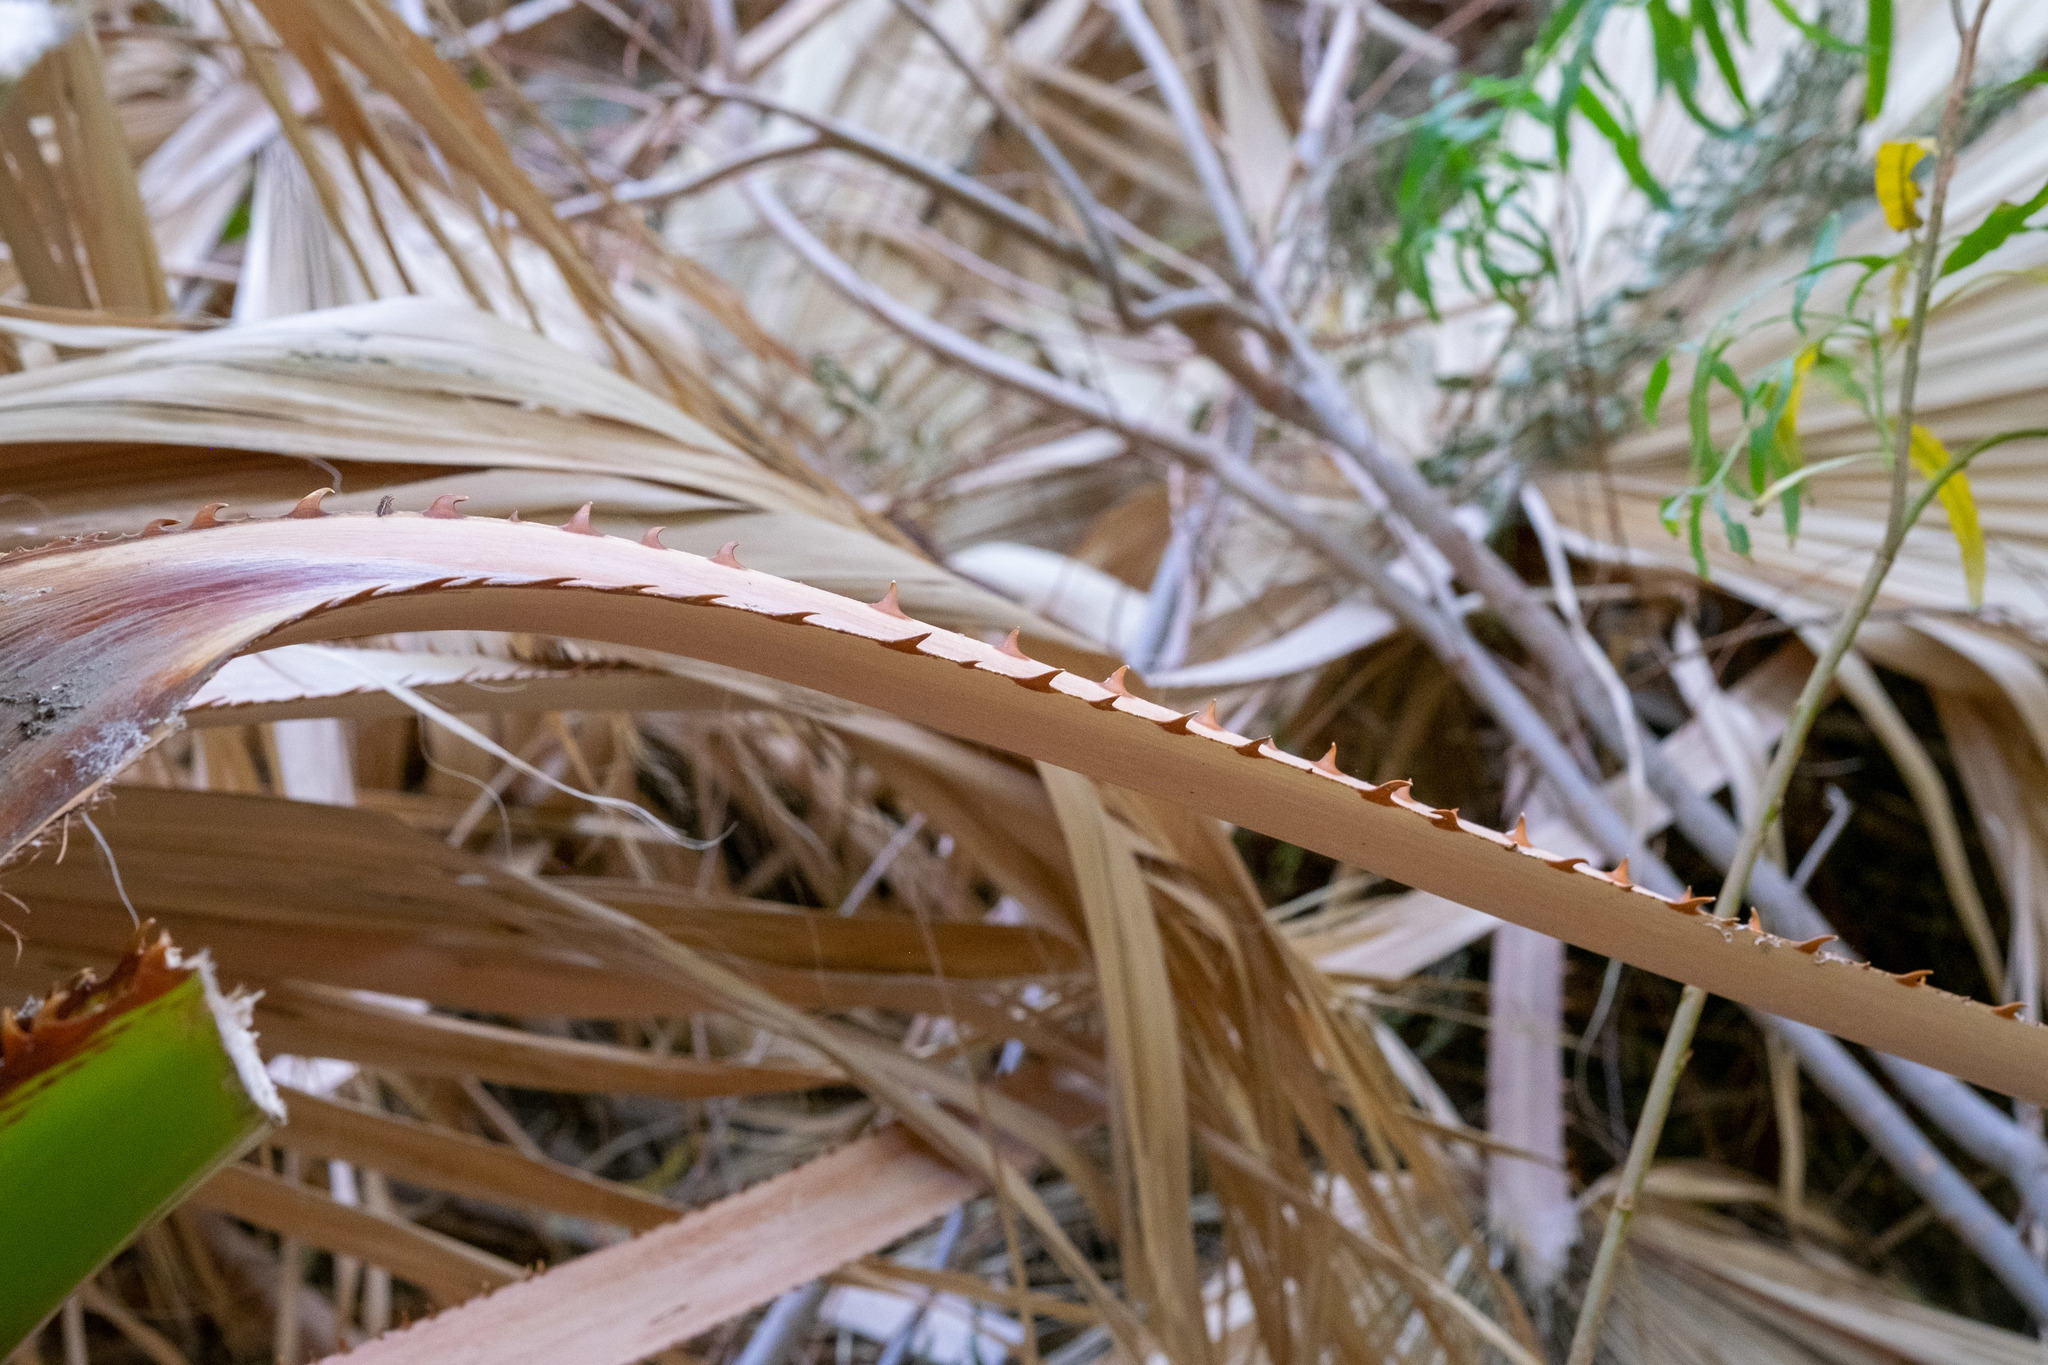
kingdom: Plantae
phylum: Tracheophyta
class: Liliopsida
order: Arecales
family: Arecaceae
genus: Washingtonia
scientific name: Washingtonia filifera
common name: California fan palm
